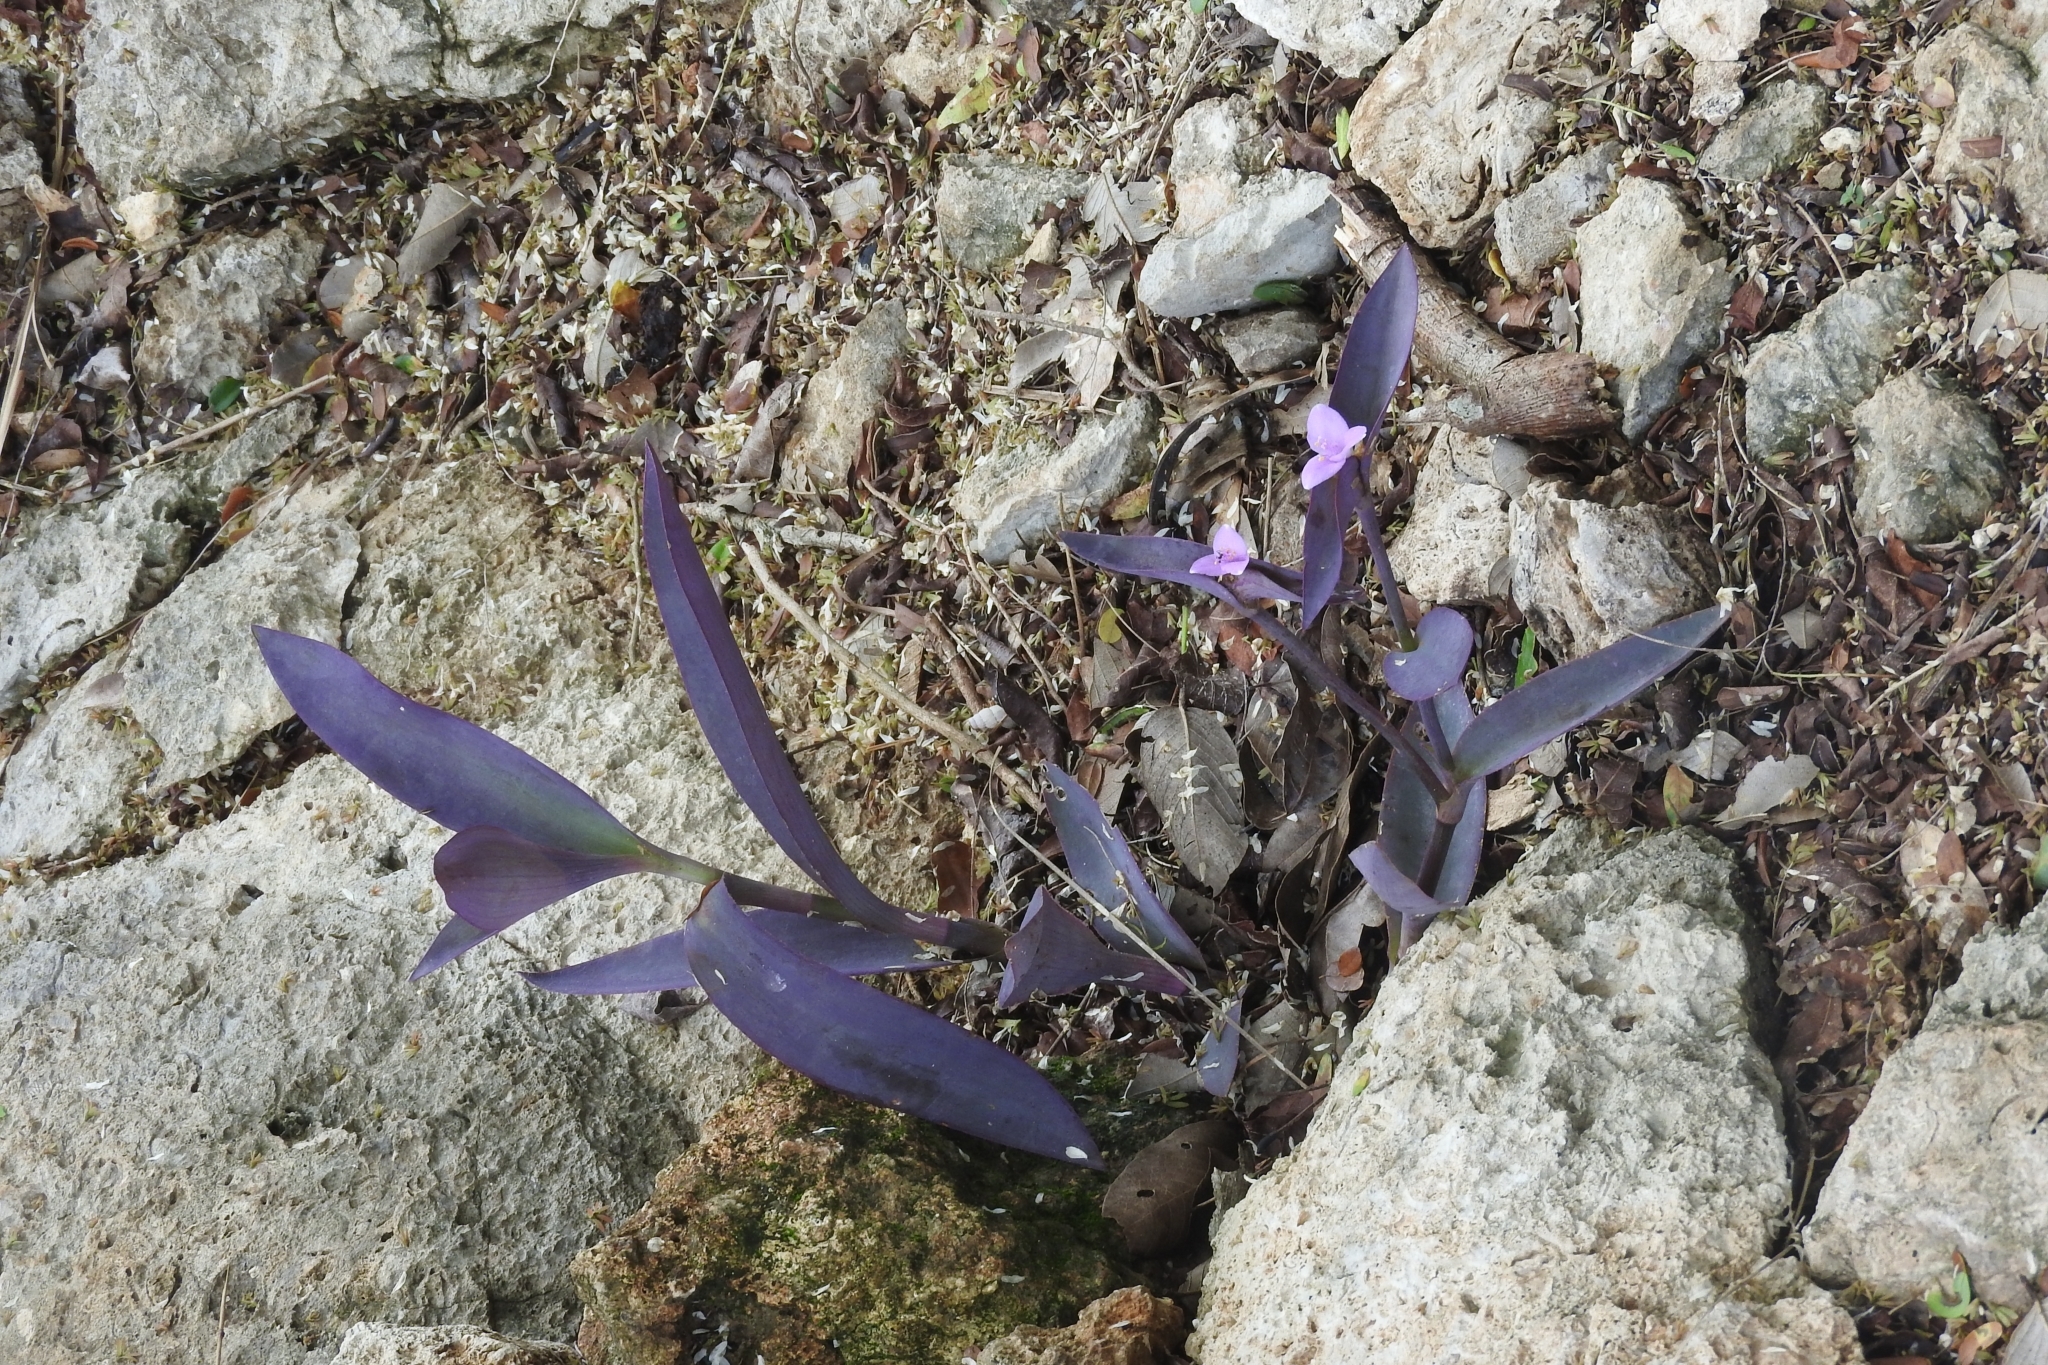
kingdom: Plantae
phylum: Tracheophyta
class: Liliopsida
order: Commelinales
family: Commelinaceae
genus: Tradescantia
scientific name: Tradescantia pallida
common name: Purpleheart
